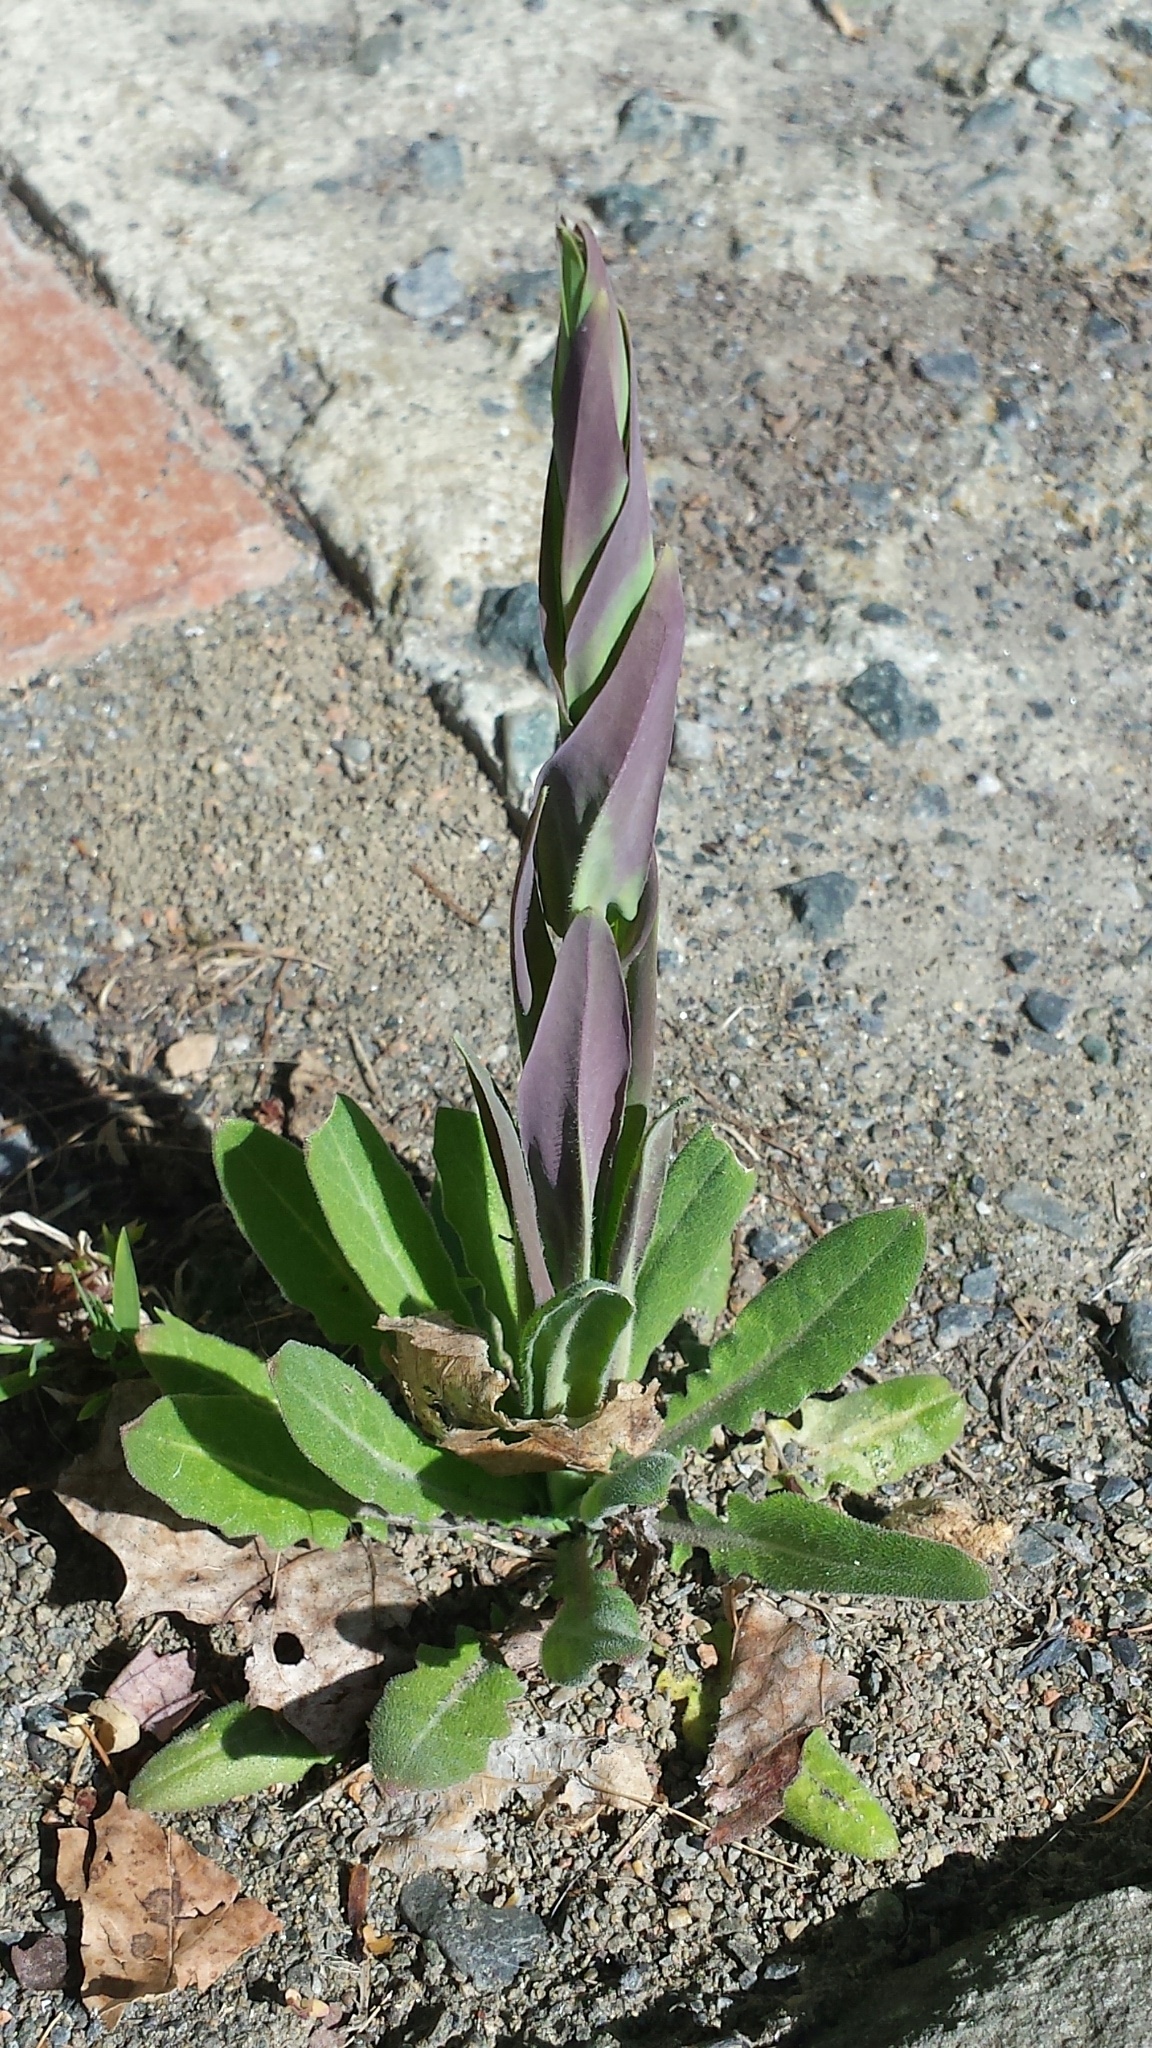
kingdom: Plantae
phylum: Tracheophyta
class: Magnoliopsida
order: Brassicales
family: Brassicaceae
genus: Turritis
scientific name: Turritis glabra
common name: Tower rockcress
